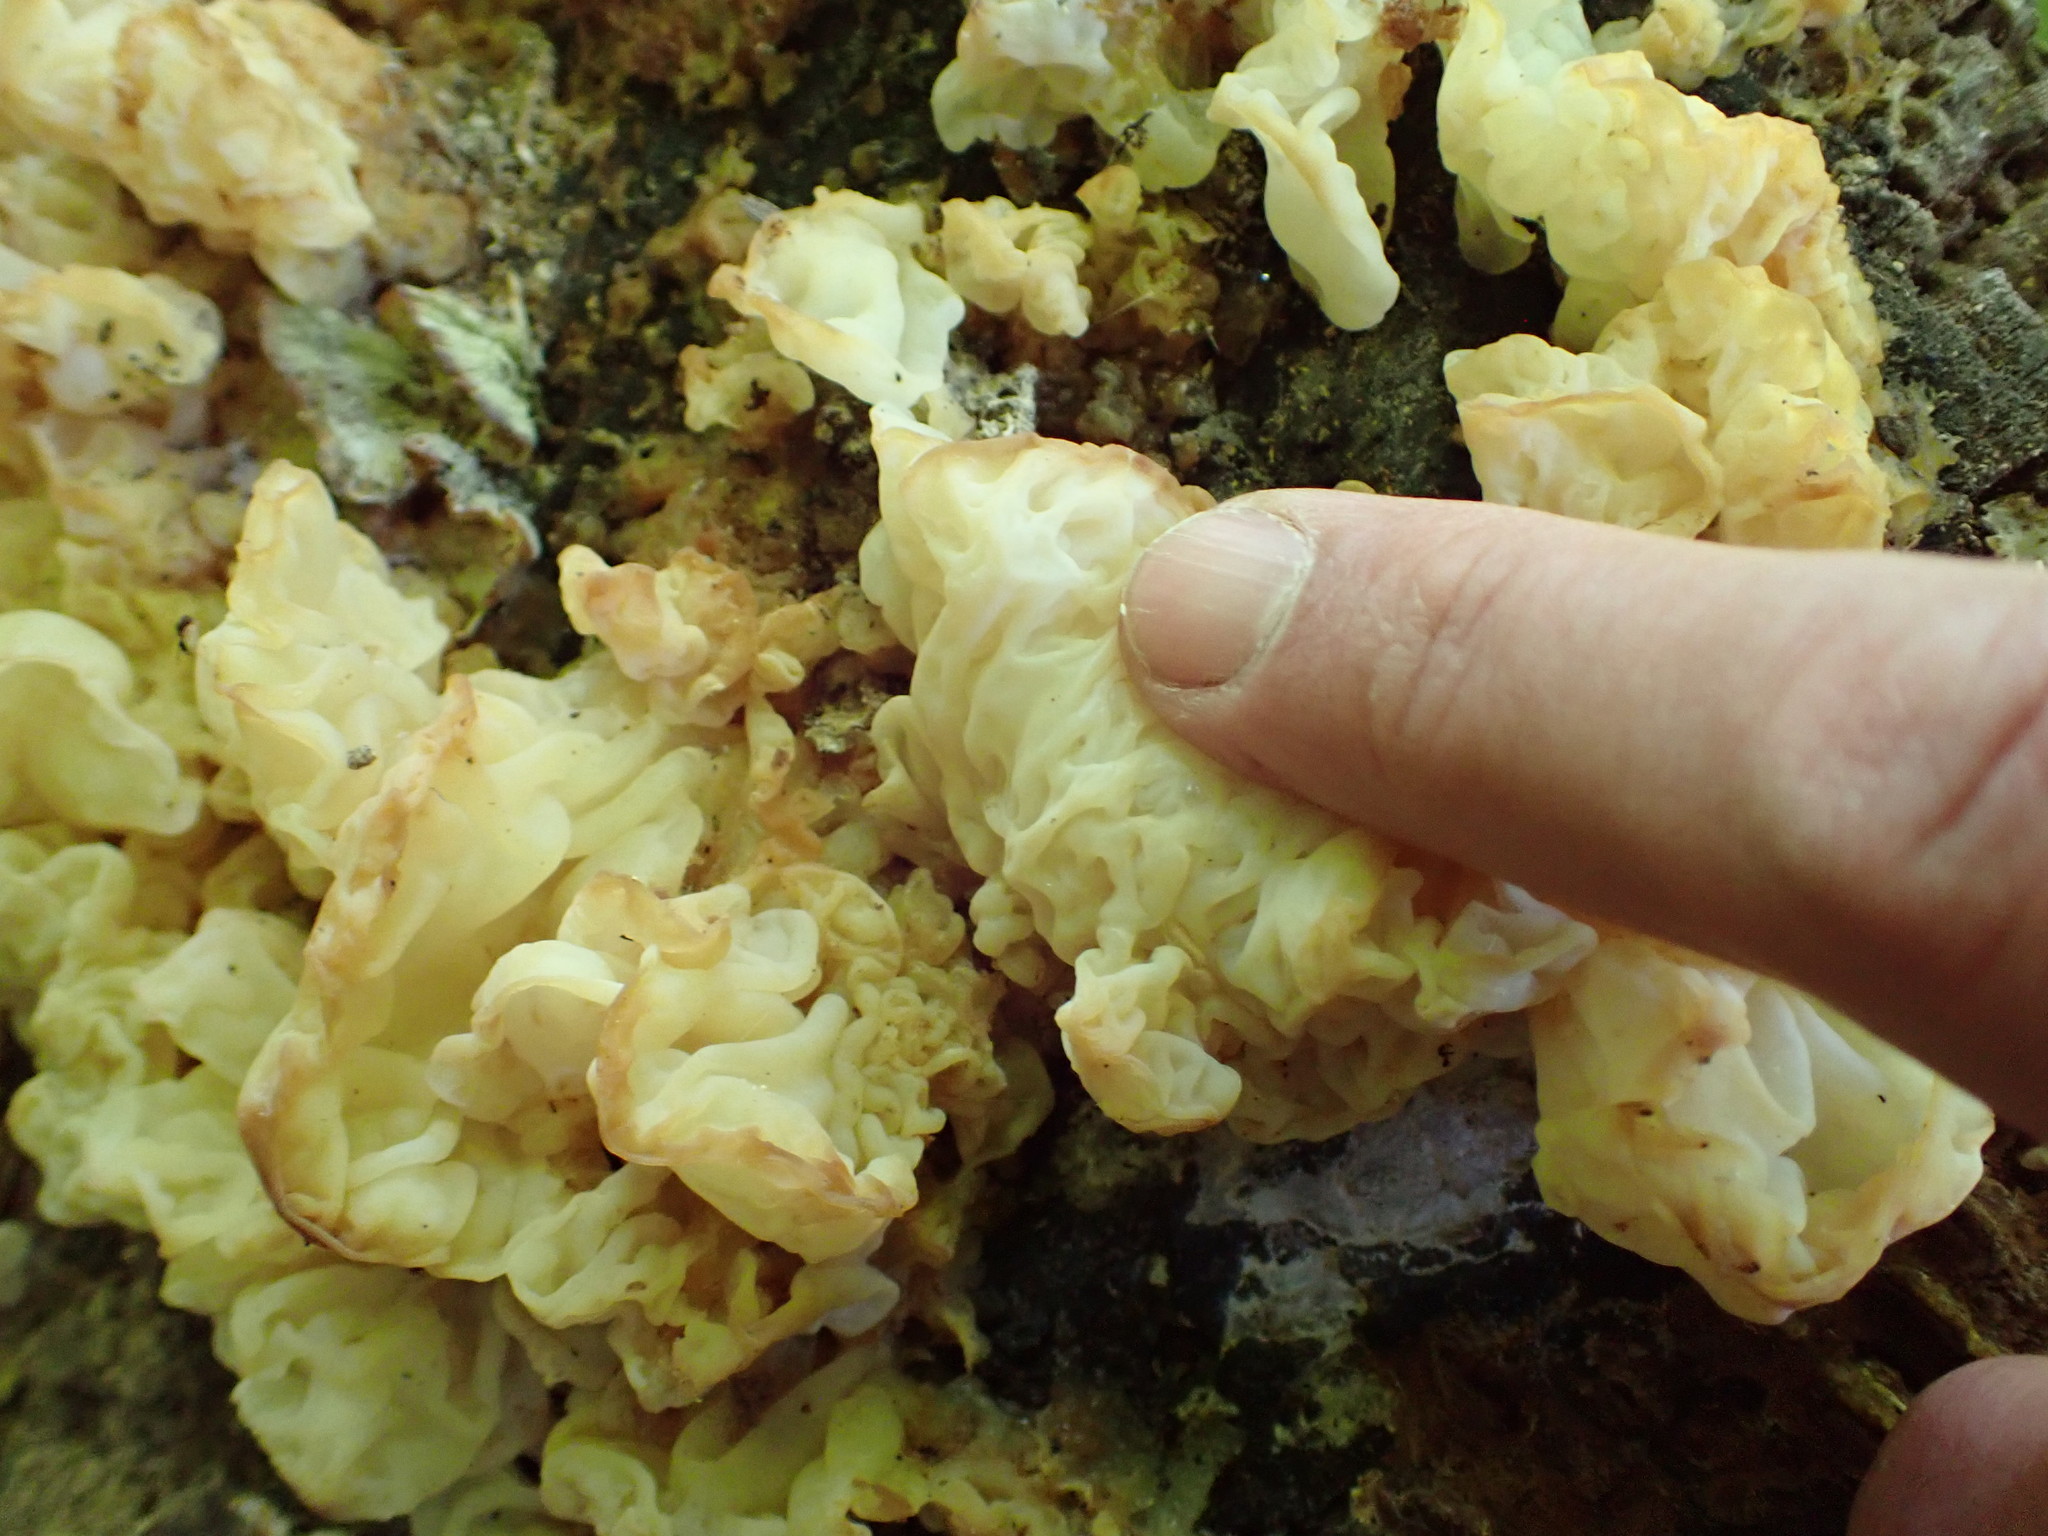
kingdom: Fungi
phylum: Basidiomycota
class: Agaricomycetes
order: Auriculariales
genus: Ductifera
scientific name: Ductifera pululahuana
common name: White jelly fungus
